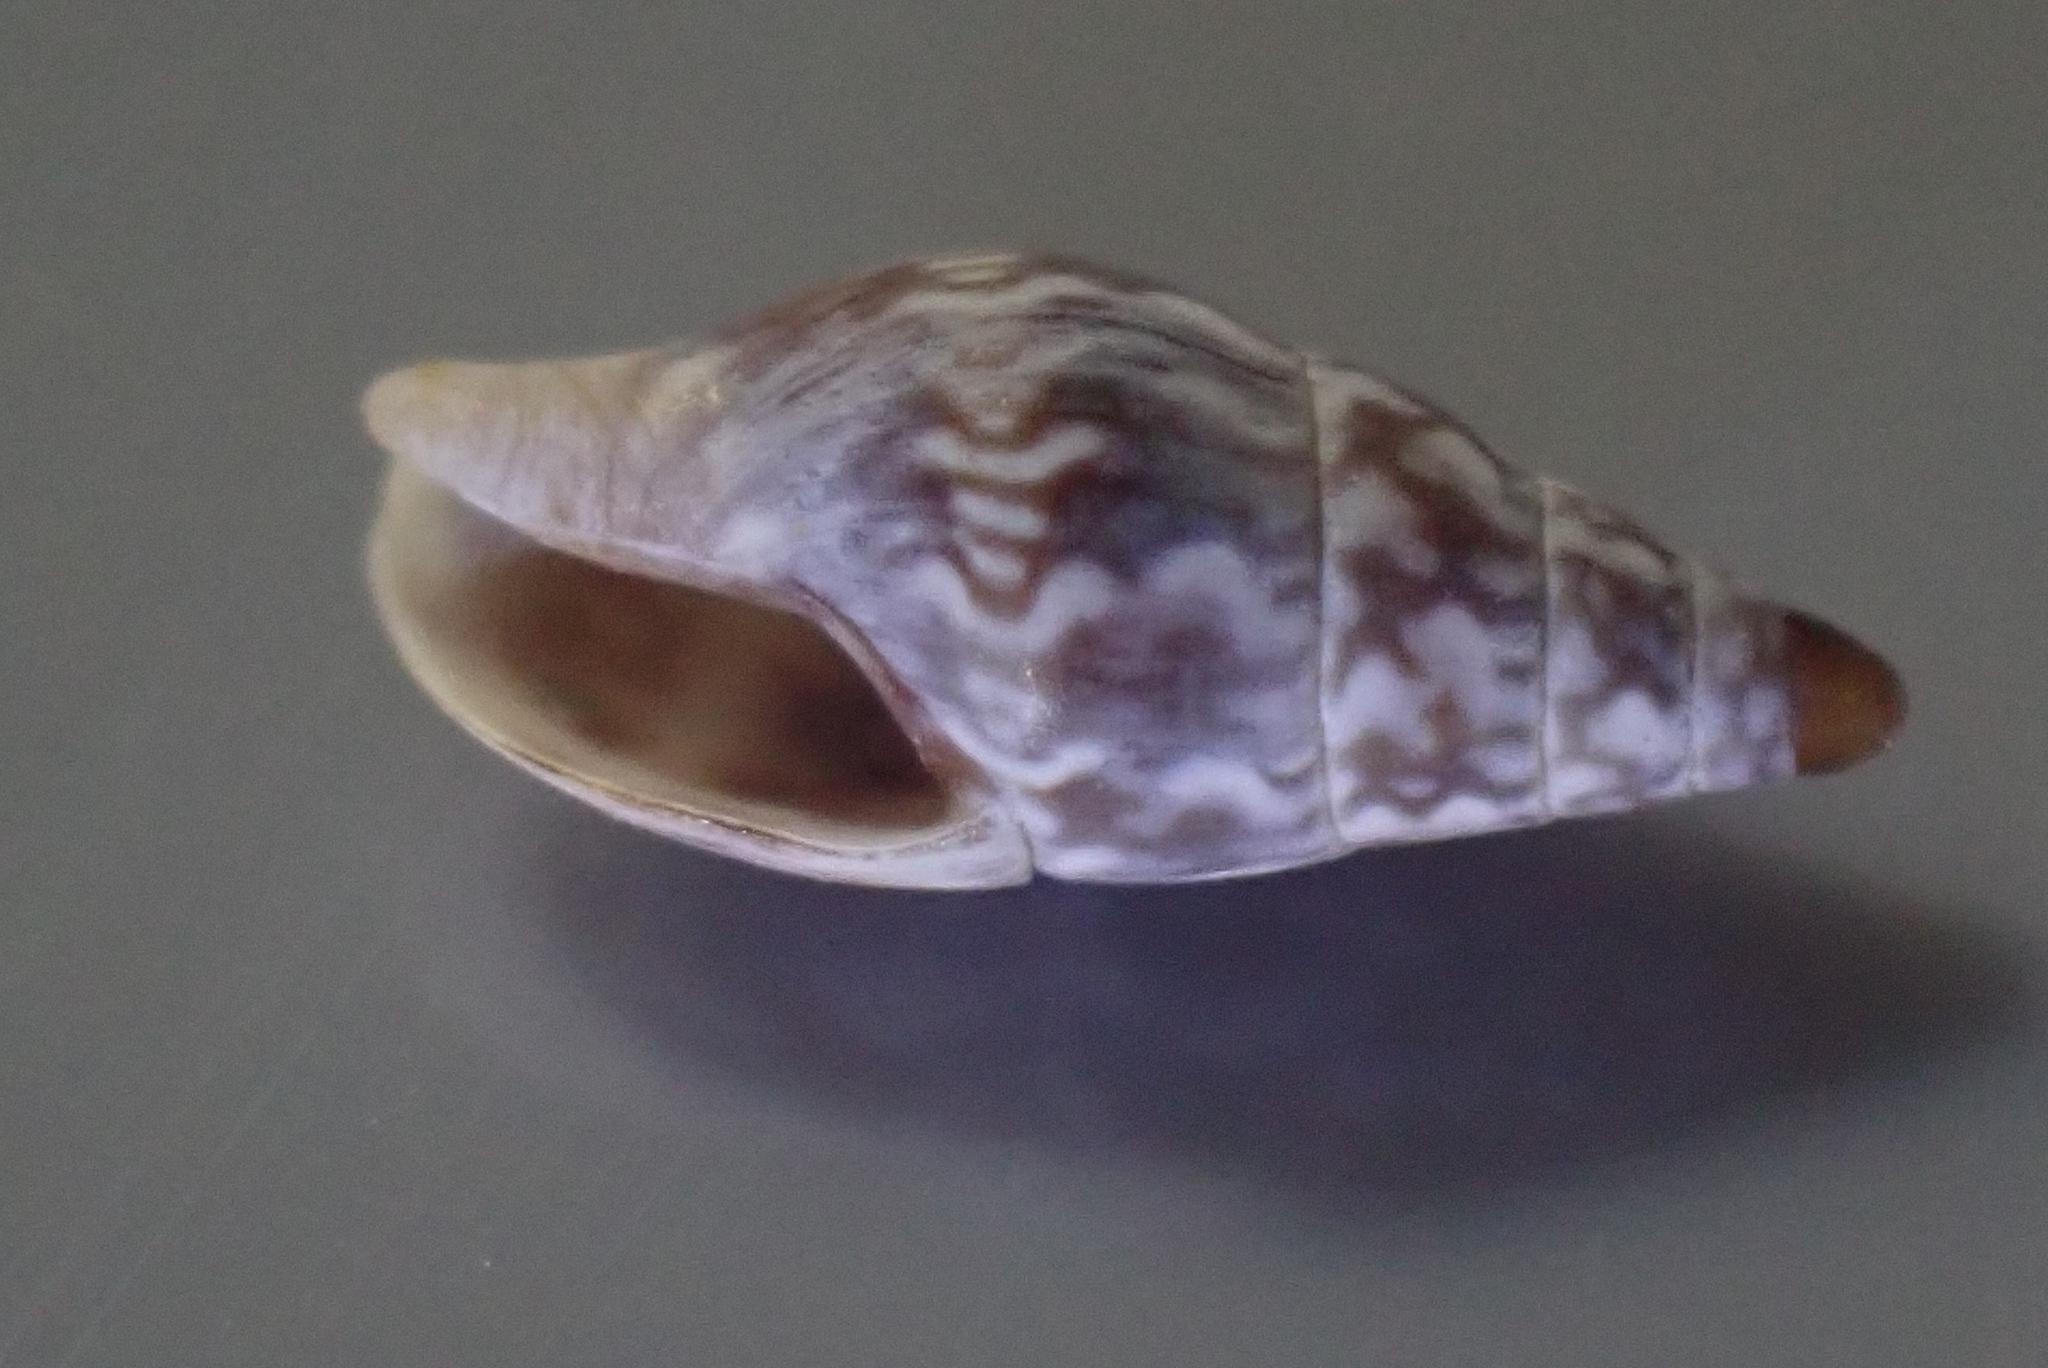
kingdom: Animalia
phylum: Mollusca
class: Gastropoda
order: Neogastropoda
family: Columbellidae
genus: Zemitrella
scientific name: Zemitrella choava
